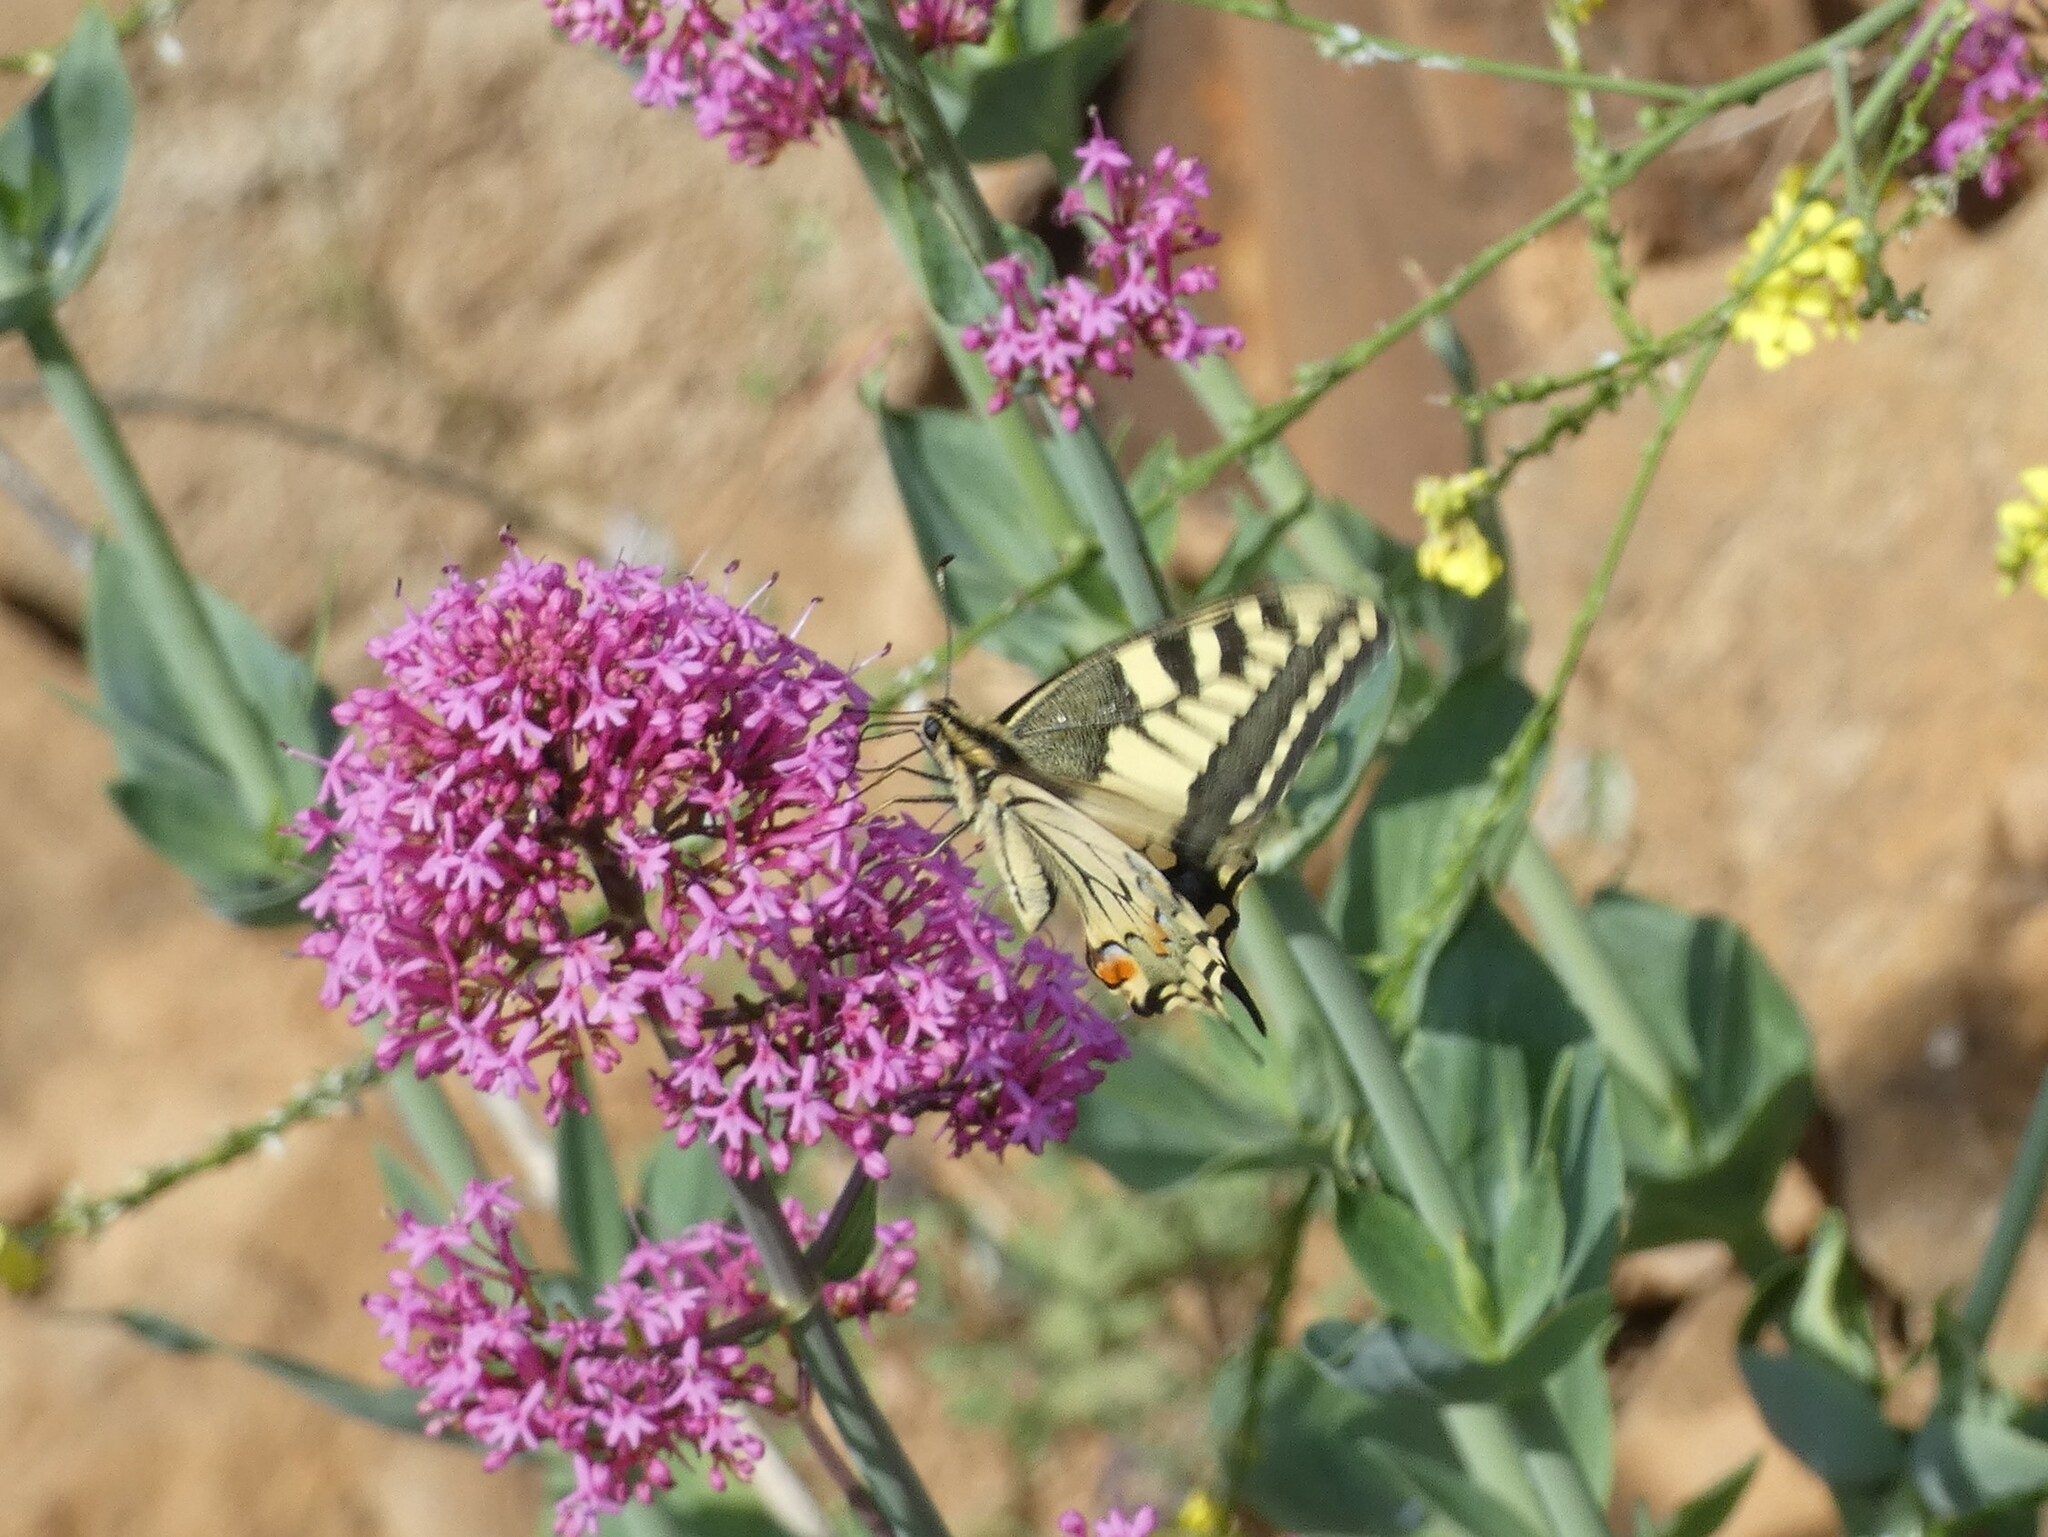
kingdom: Animalia
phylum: Arthropoda
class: Insecta
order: Lepidoptera
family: Papilionidae
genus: Papilio
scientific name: Papilio machaon
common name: Swallowtail
